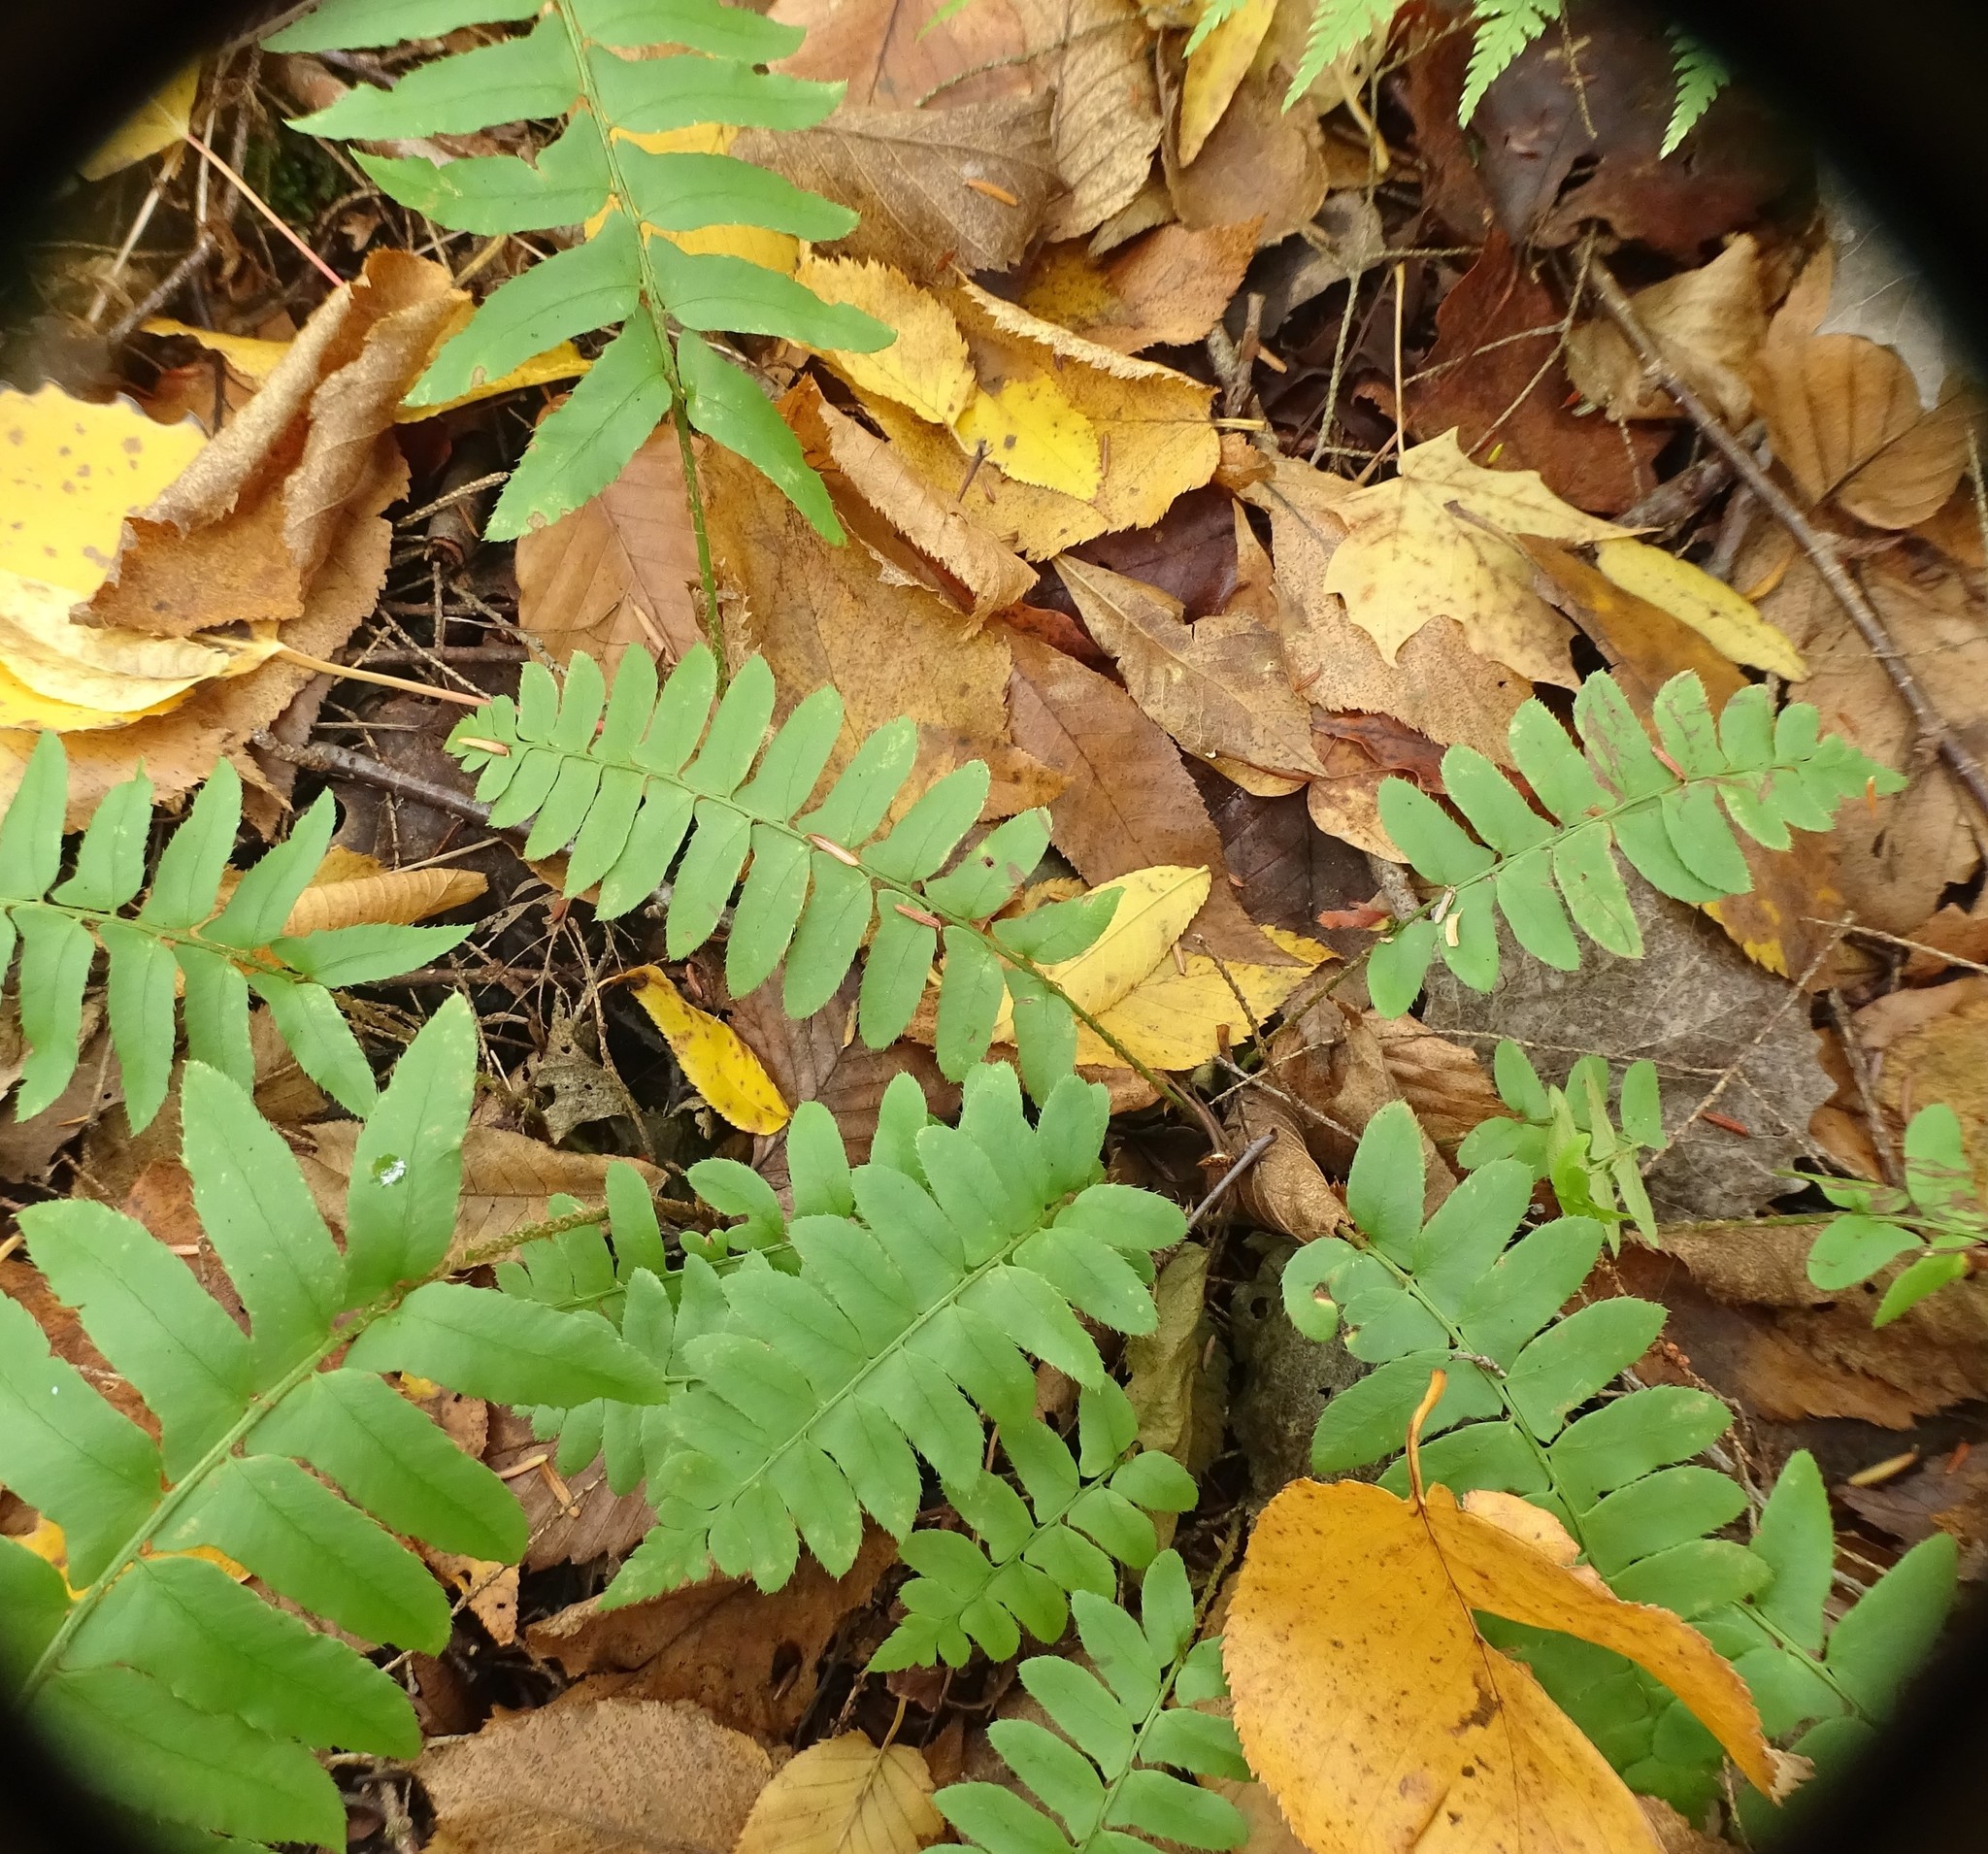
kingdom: Plantae
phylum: Tracheophyta
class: Polypodiopsida
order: Polypodiales
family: Dryopteridaceae
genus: Polystichum
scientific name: Polystichum acrostichoides
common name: Christmas fern
